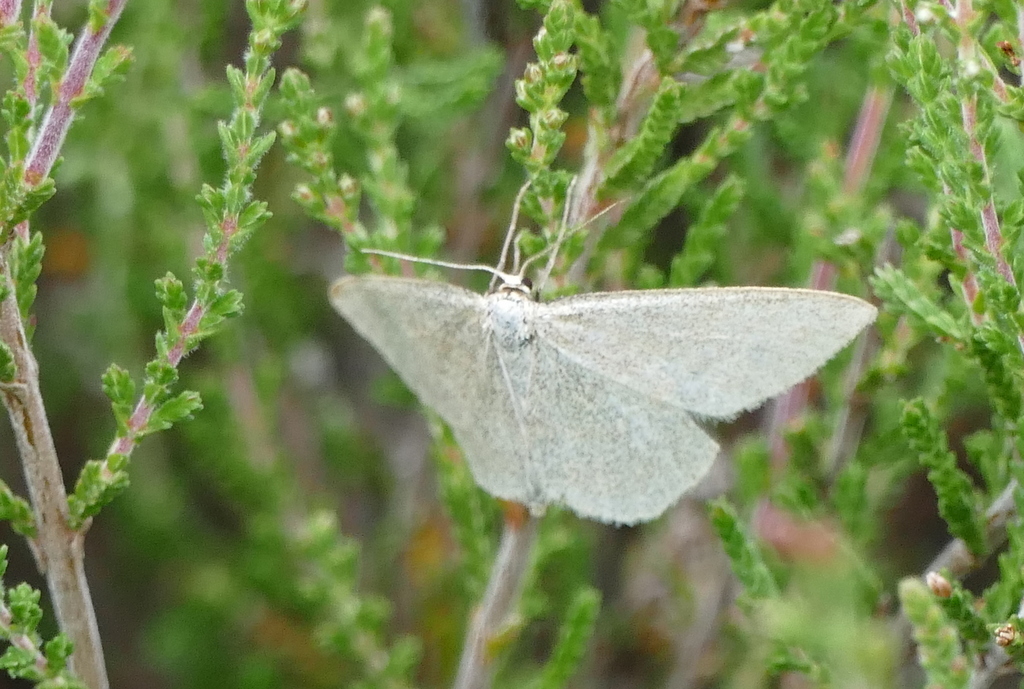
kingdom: Animalia
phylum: Arthropoda
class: Insecta
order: Lepidoptera
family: Geometridae
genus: Scopula
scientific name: Scopula ternata
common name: Smoky wave
